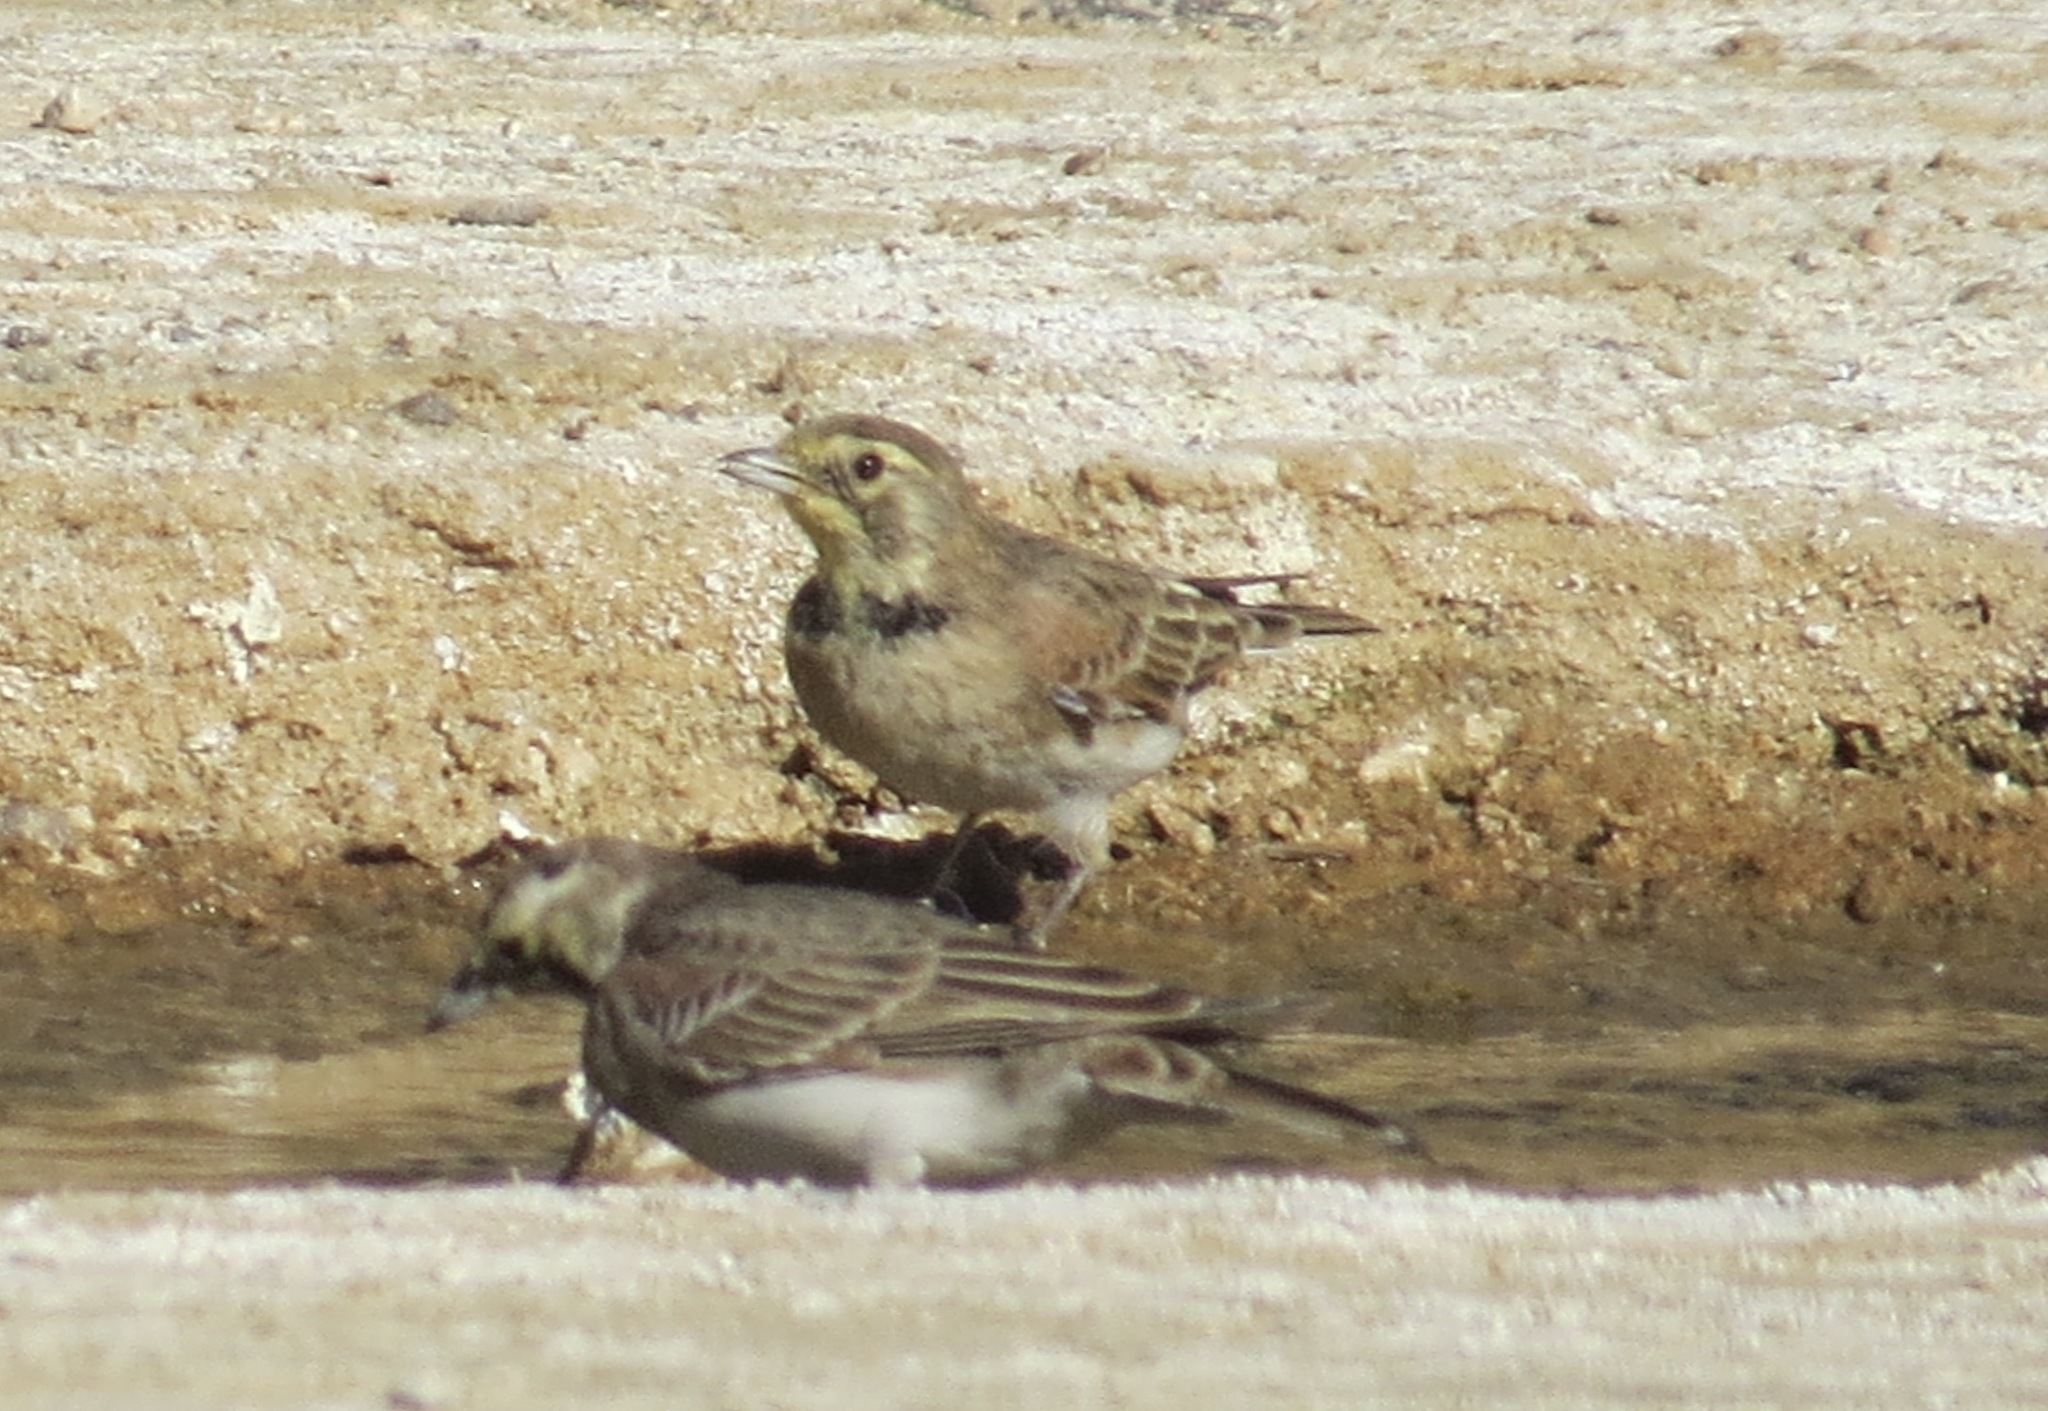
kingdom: Animalia
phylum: Chordata
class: Aves
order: Passeriformes
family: Alaudidae
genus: Eremophila
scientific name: Eremophila alpestris
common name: Horned lark
